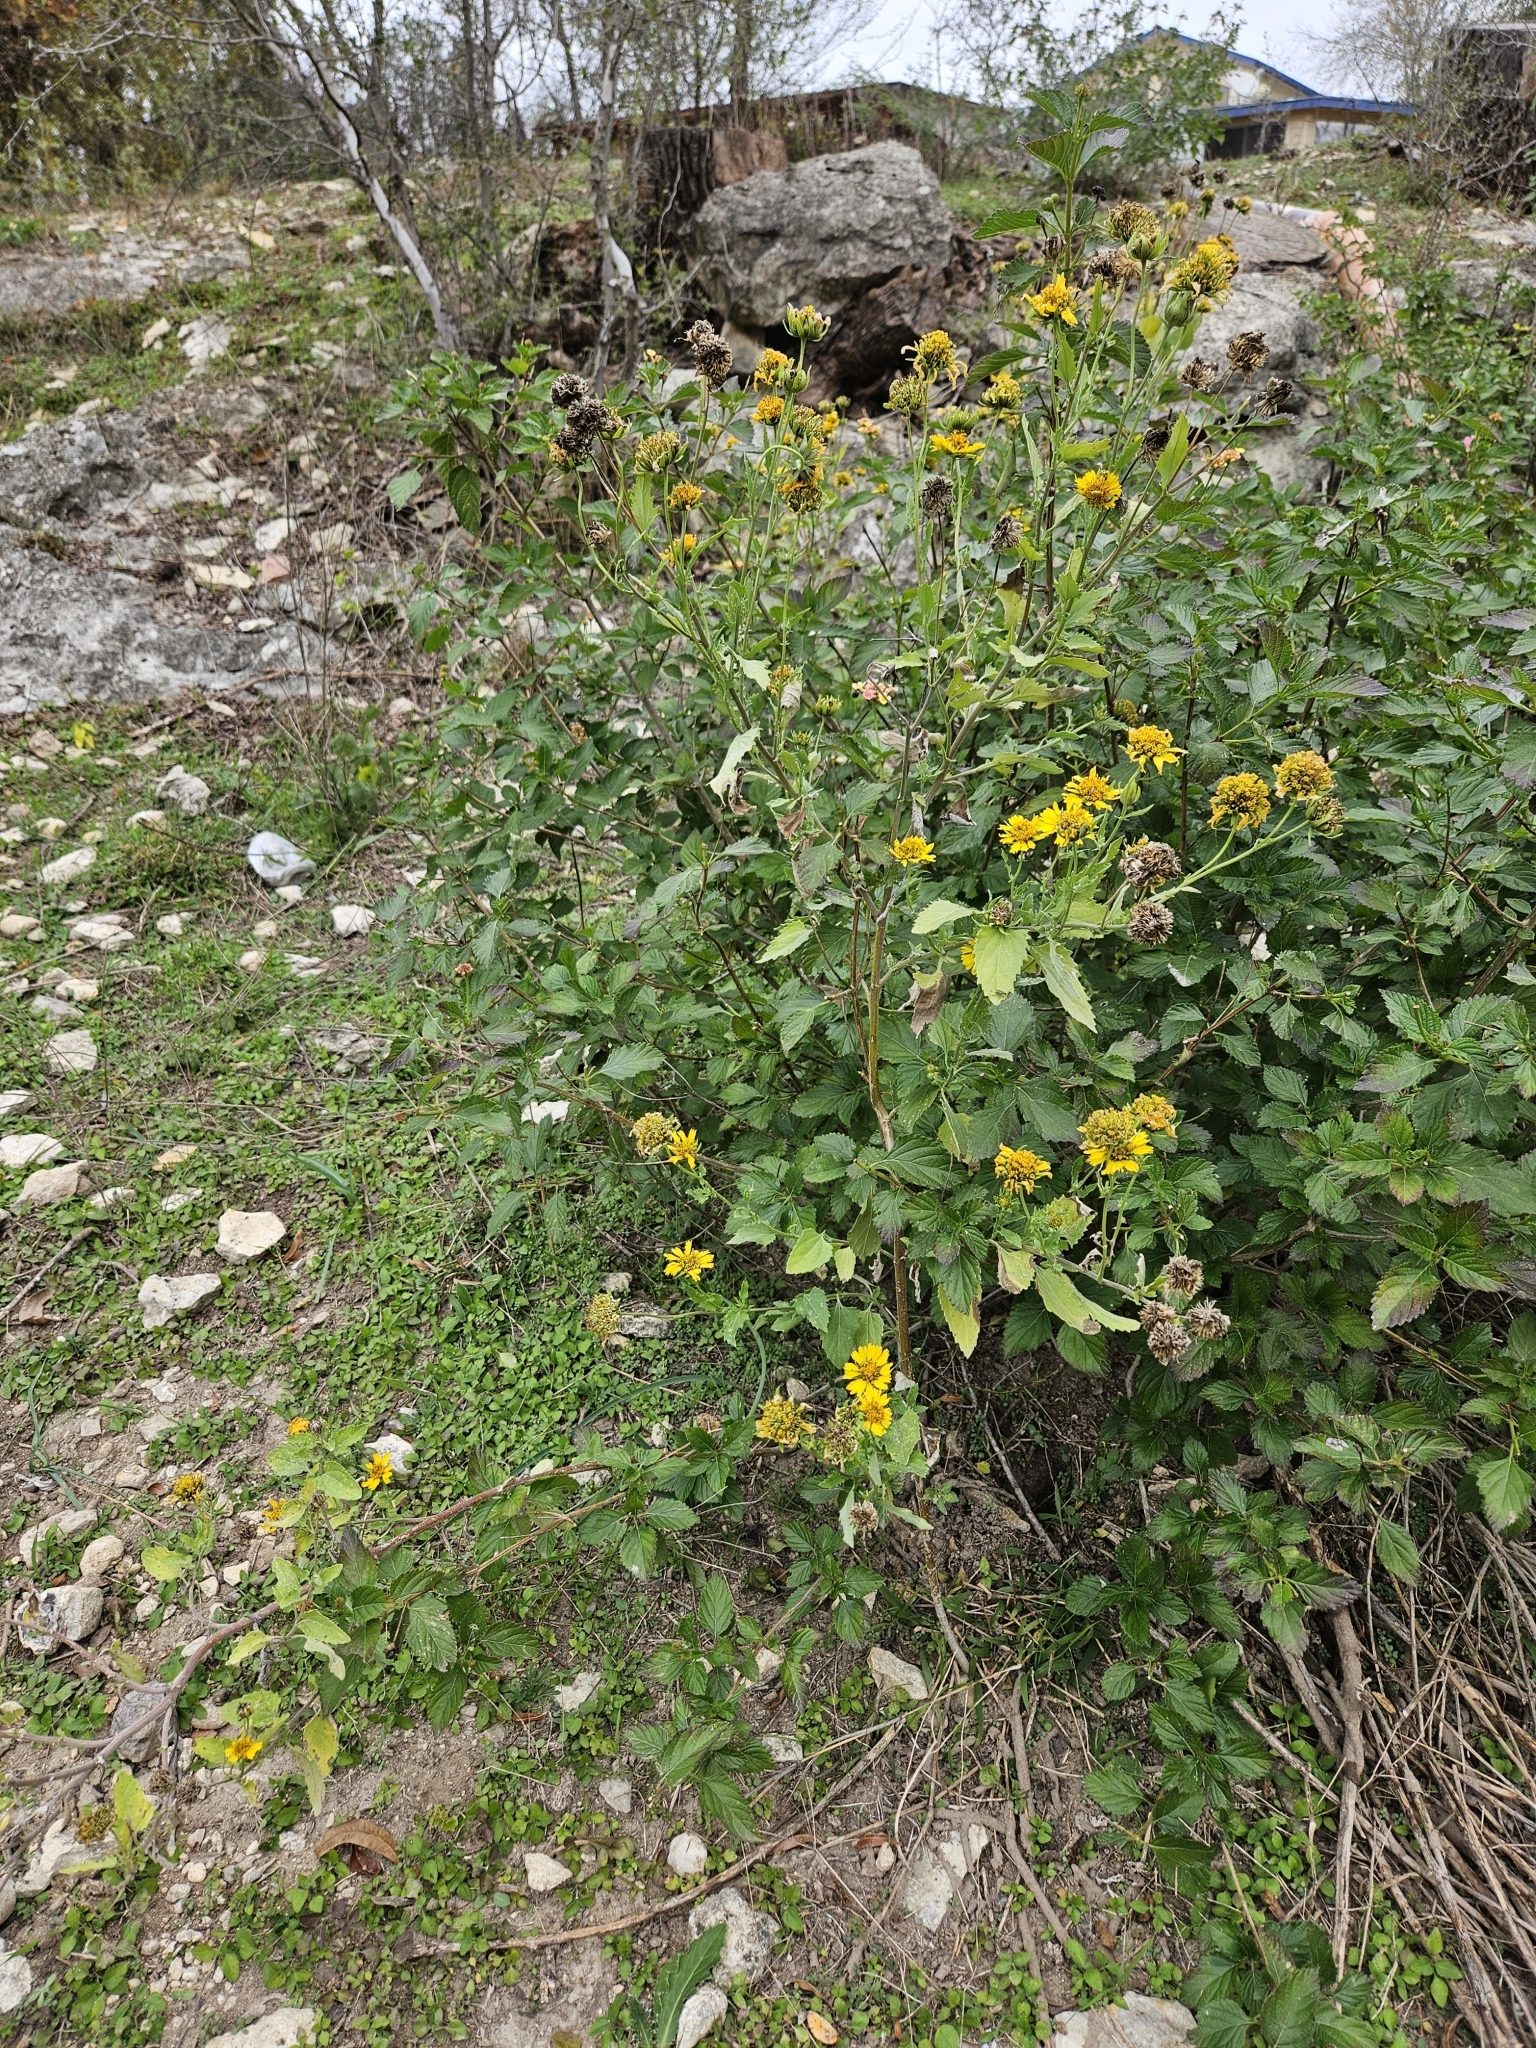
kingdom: Plantae
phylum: Tracheophyta
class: Magnoliopsida
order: Asterales
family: Asteraceae
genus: Verbesina
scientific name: Verbesina encelioides
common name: Golden crownbeard
